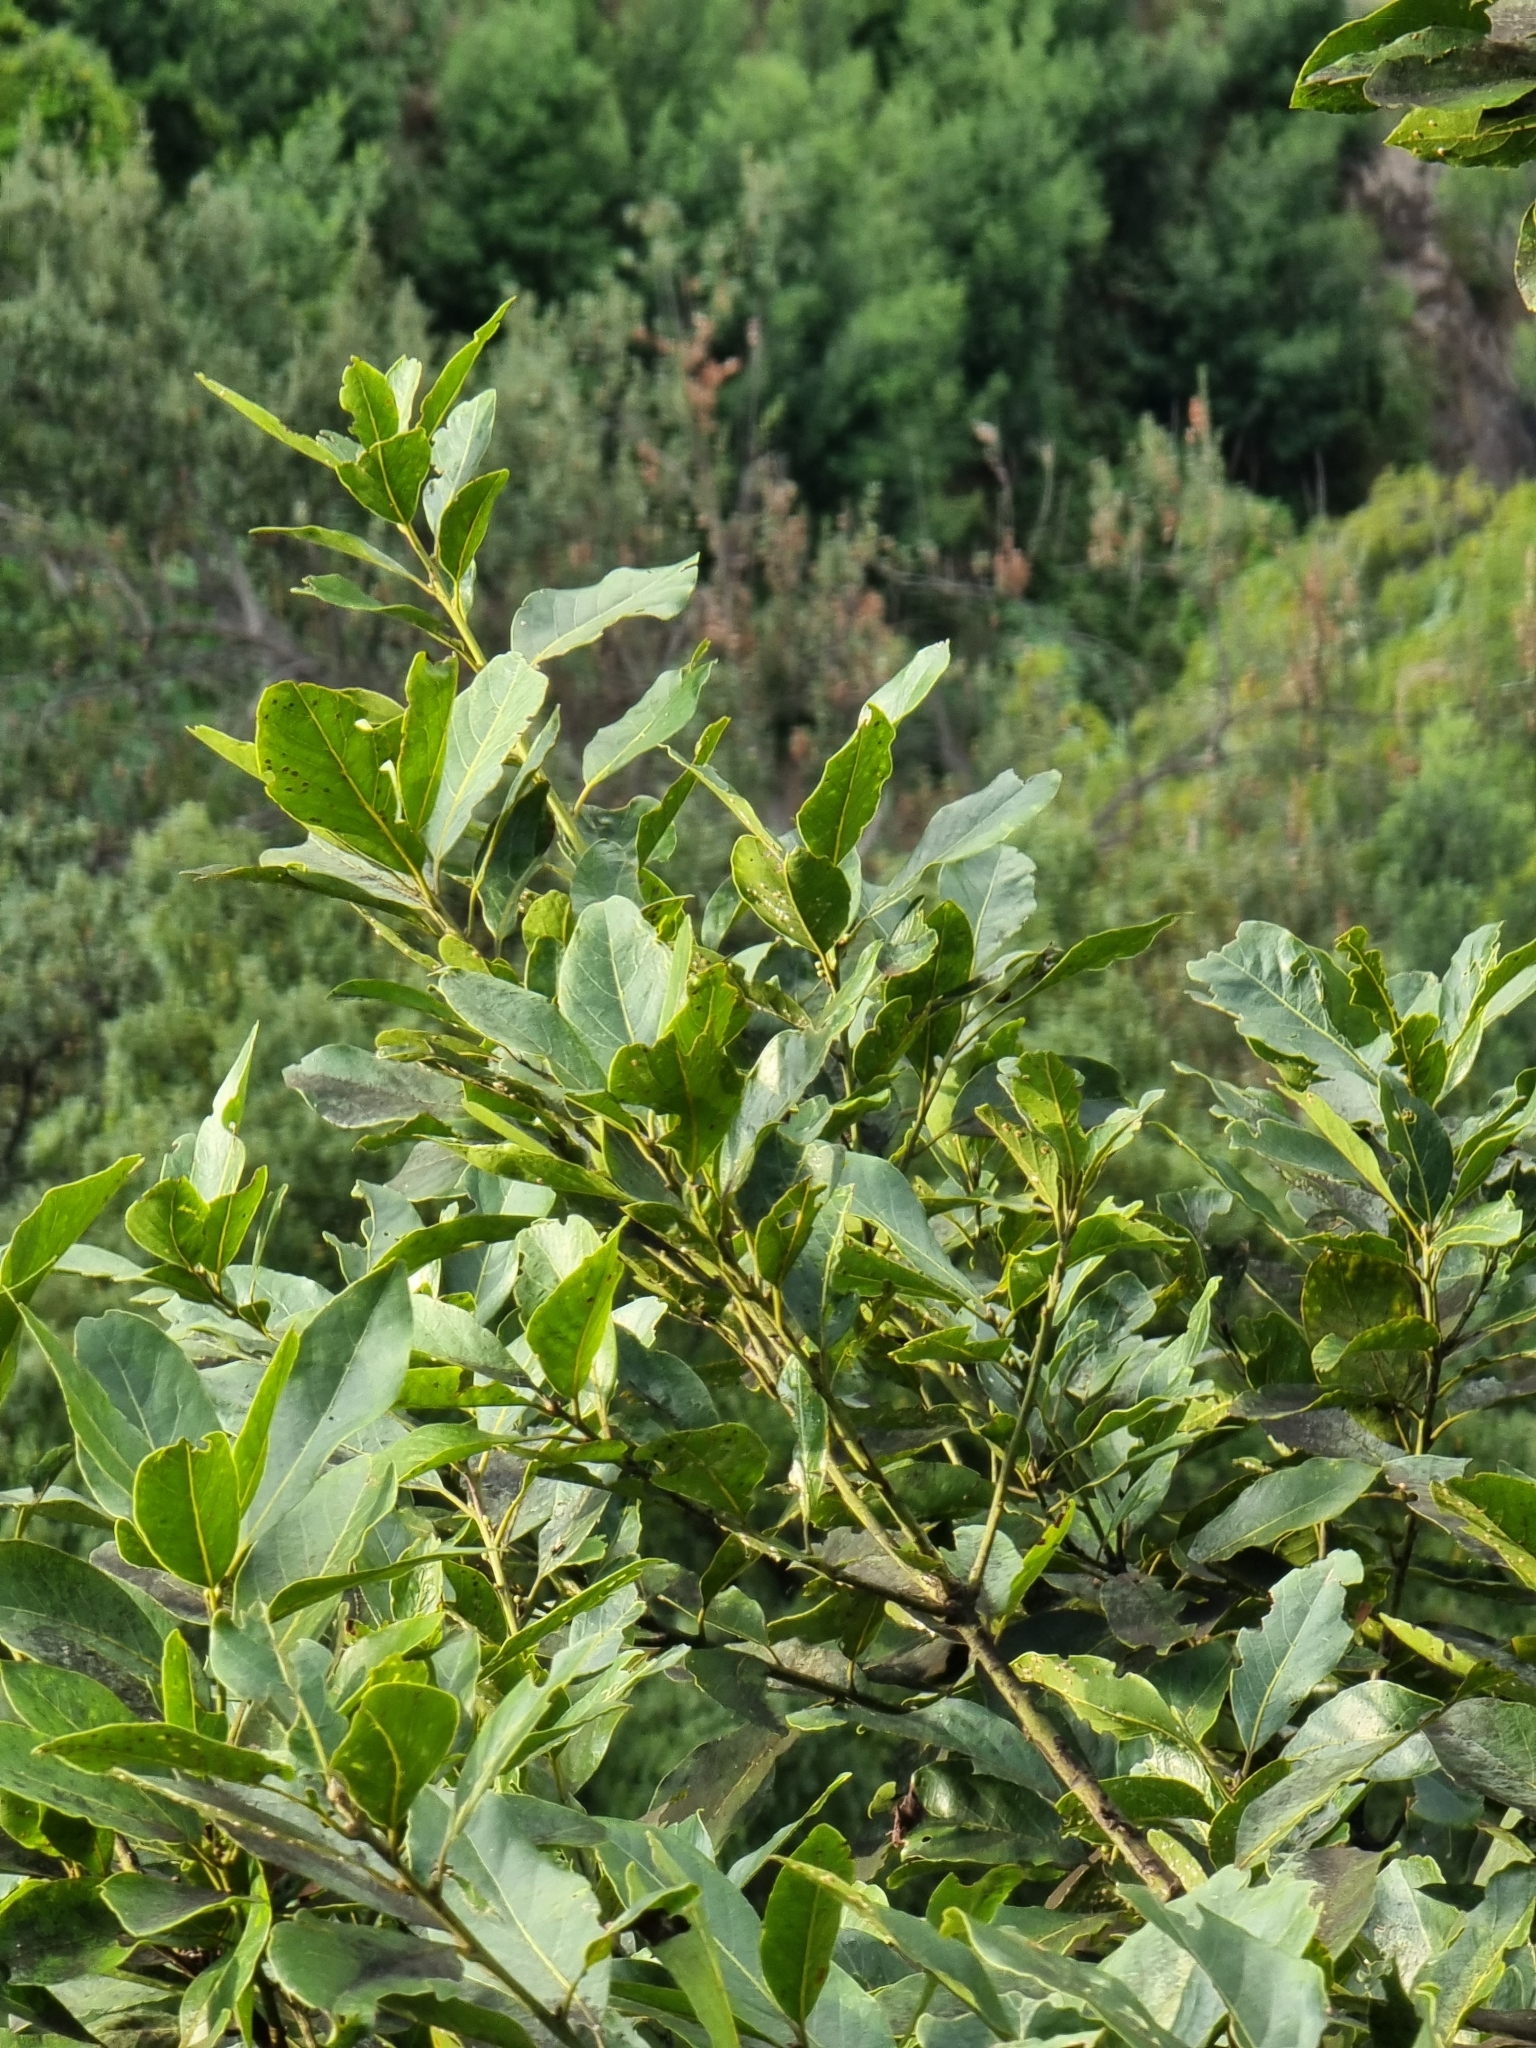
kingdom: Plantae
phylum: Tracheophyta
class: Magnoliopsida
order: Laurales
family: Lauraceae
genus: Laurus
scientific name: Laurus novocanariensis
